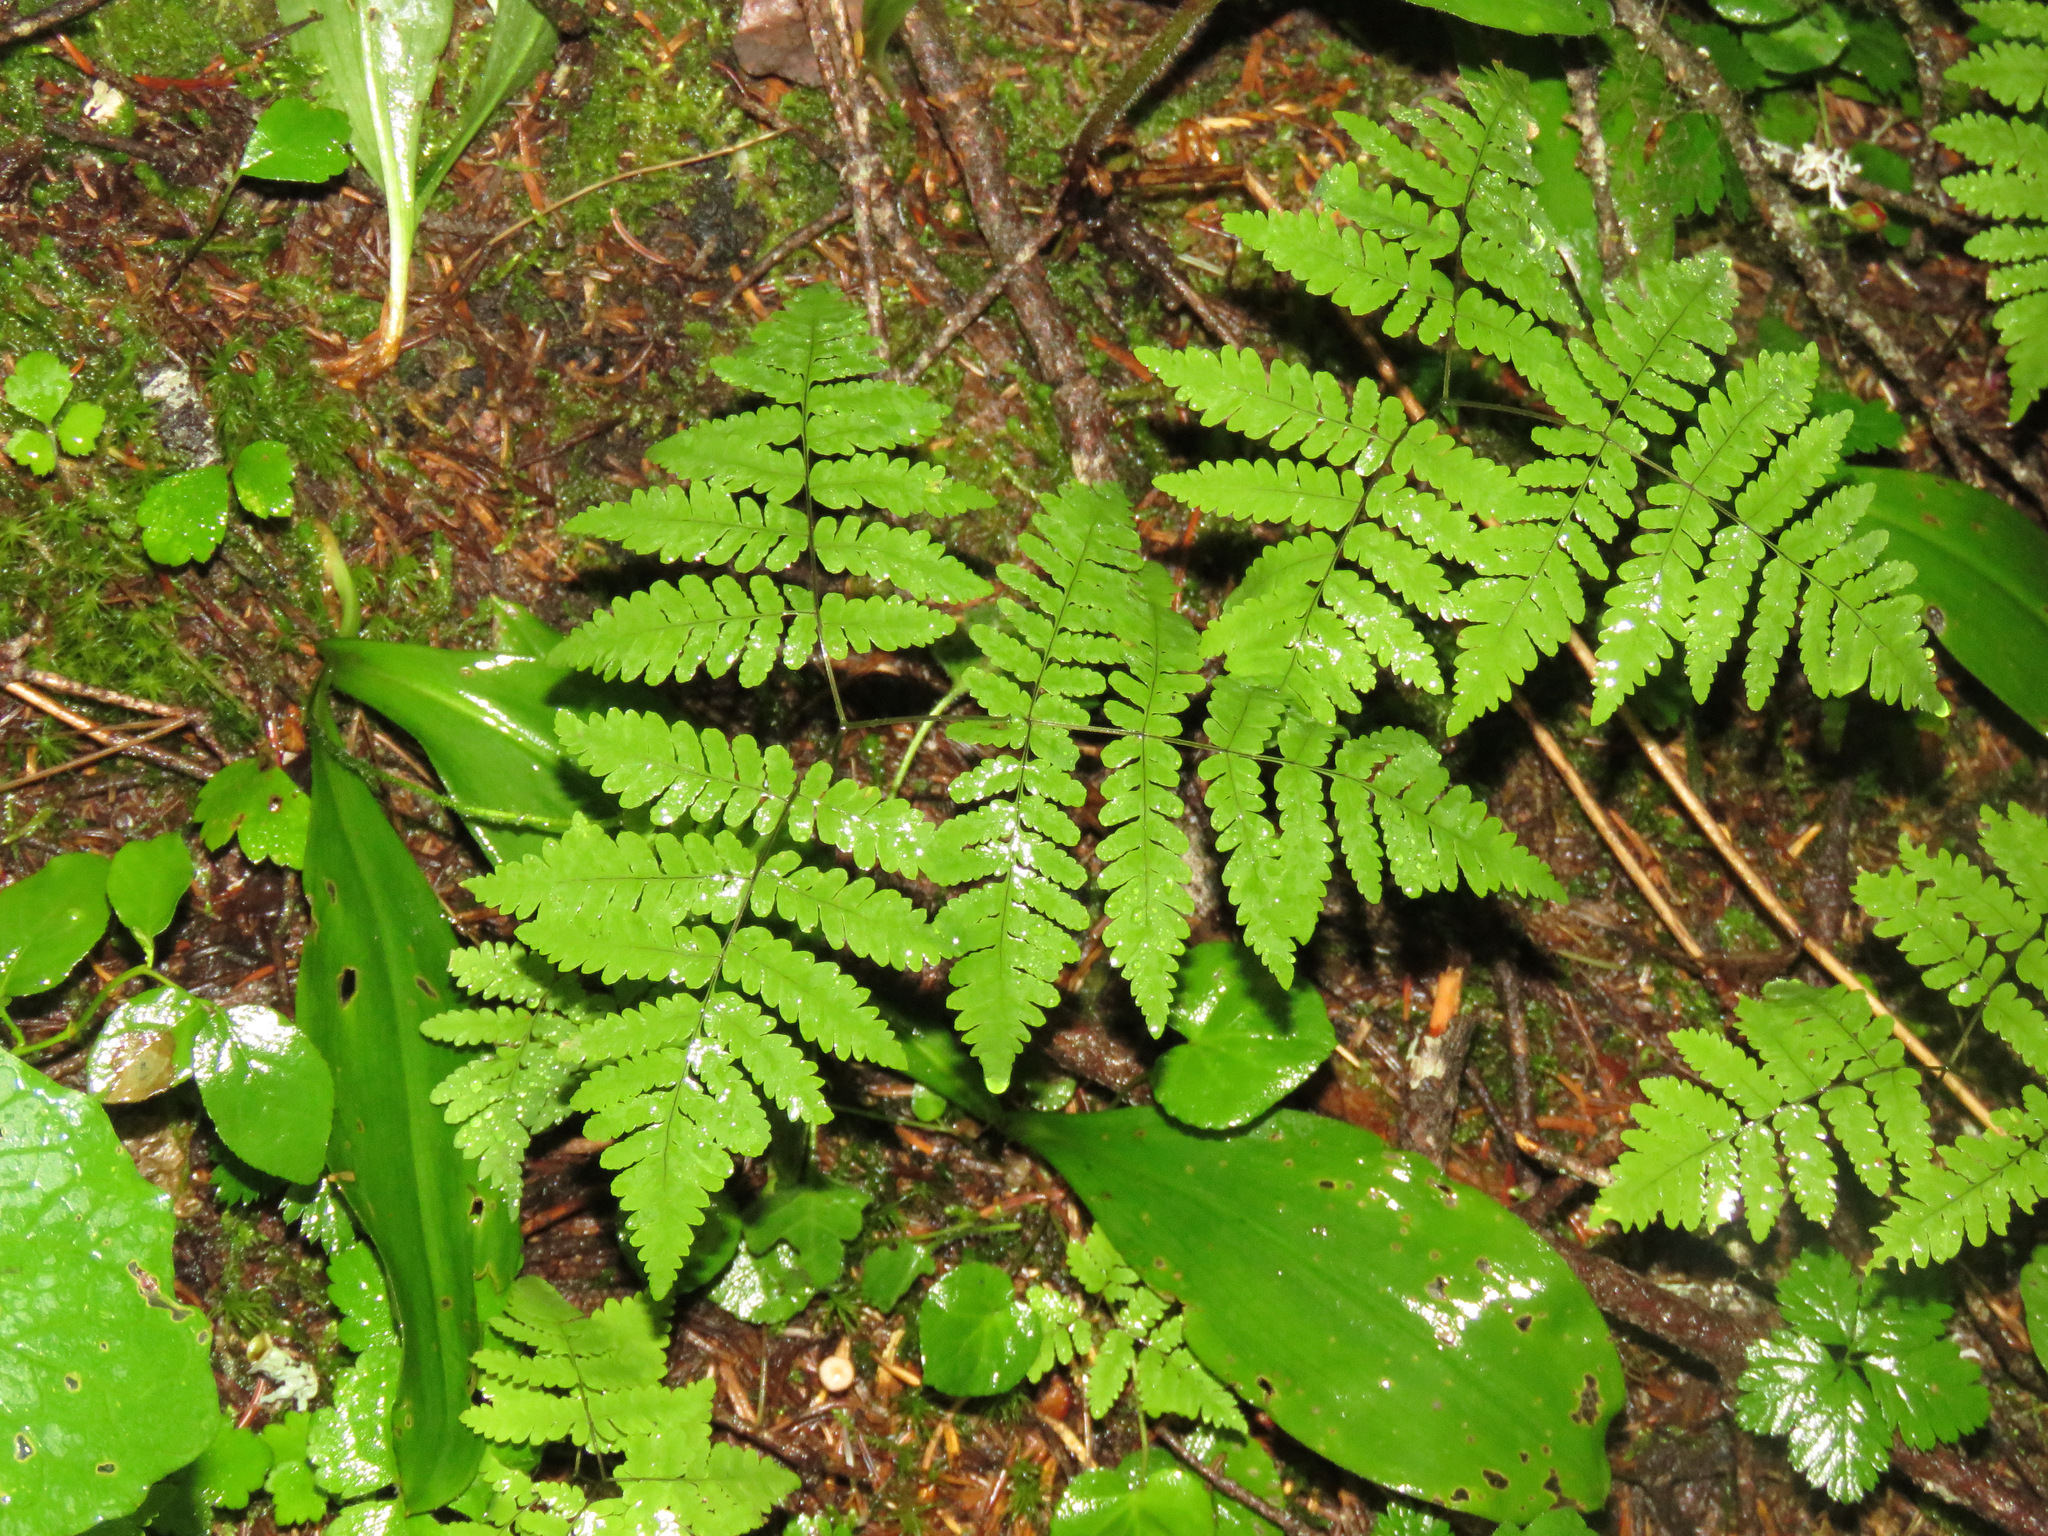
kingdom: Plantae
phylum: Tracheophyta
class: Polypodiopsida
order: Polypodiales
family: Cystopteridaceae
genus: Gymnocarpium
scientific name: Gymnocarpium dryopteris
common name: Oak fern
